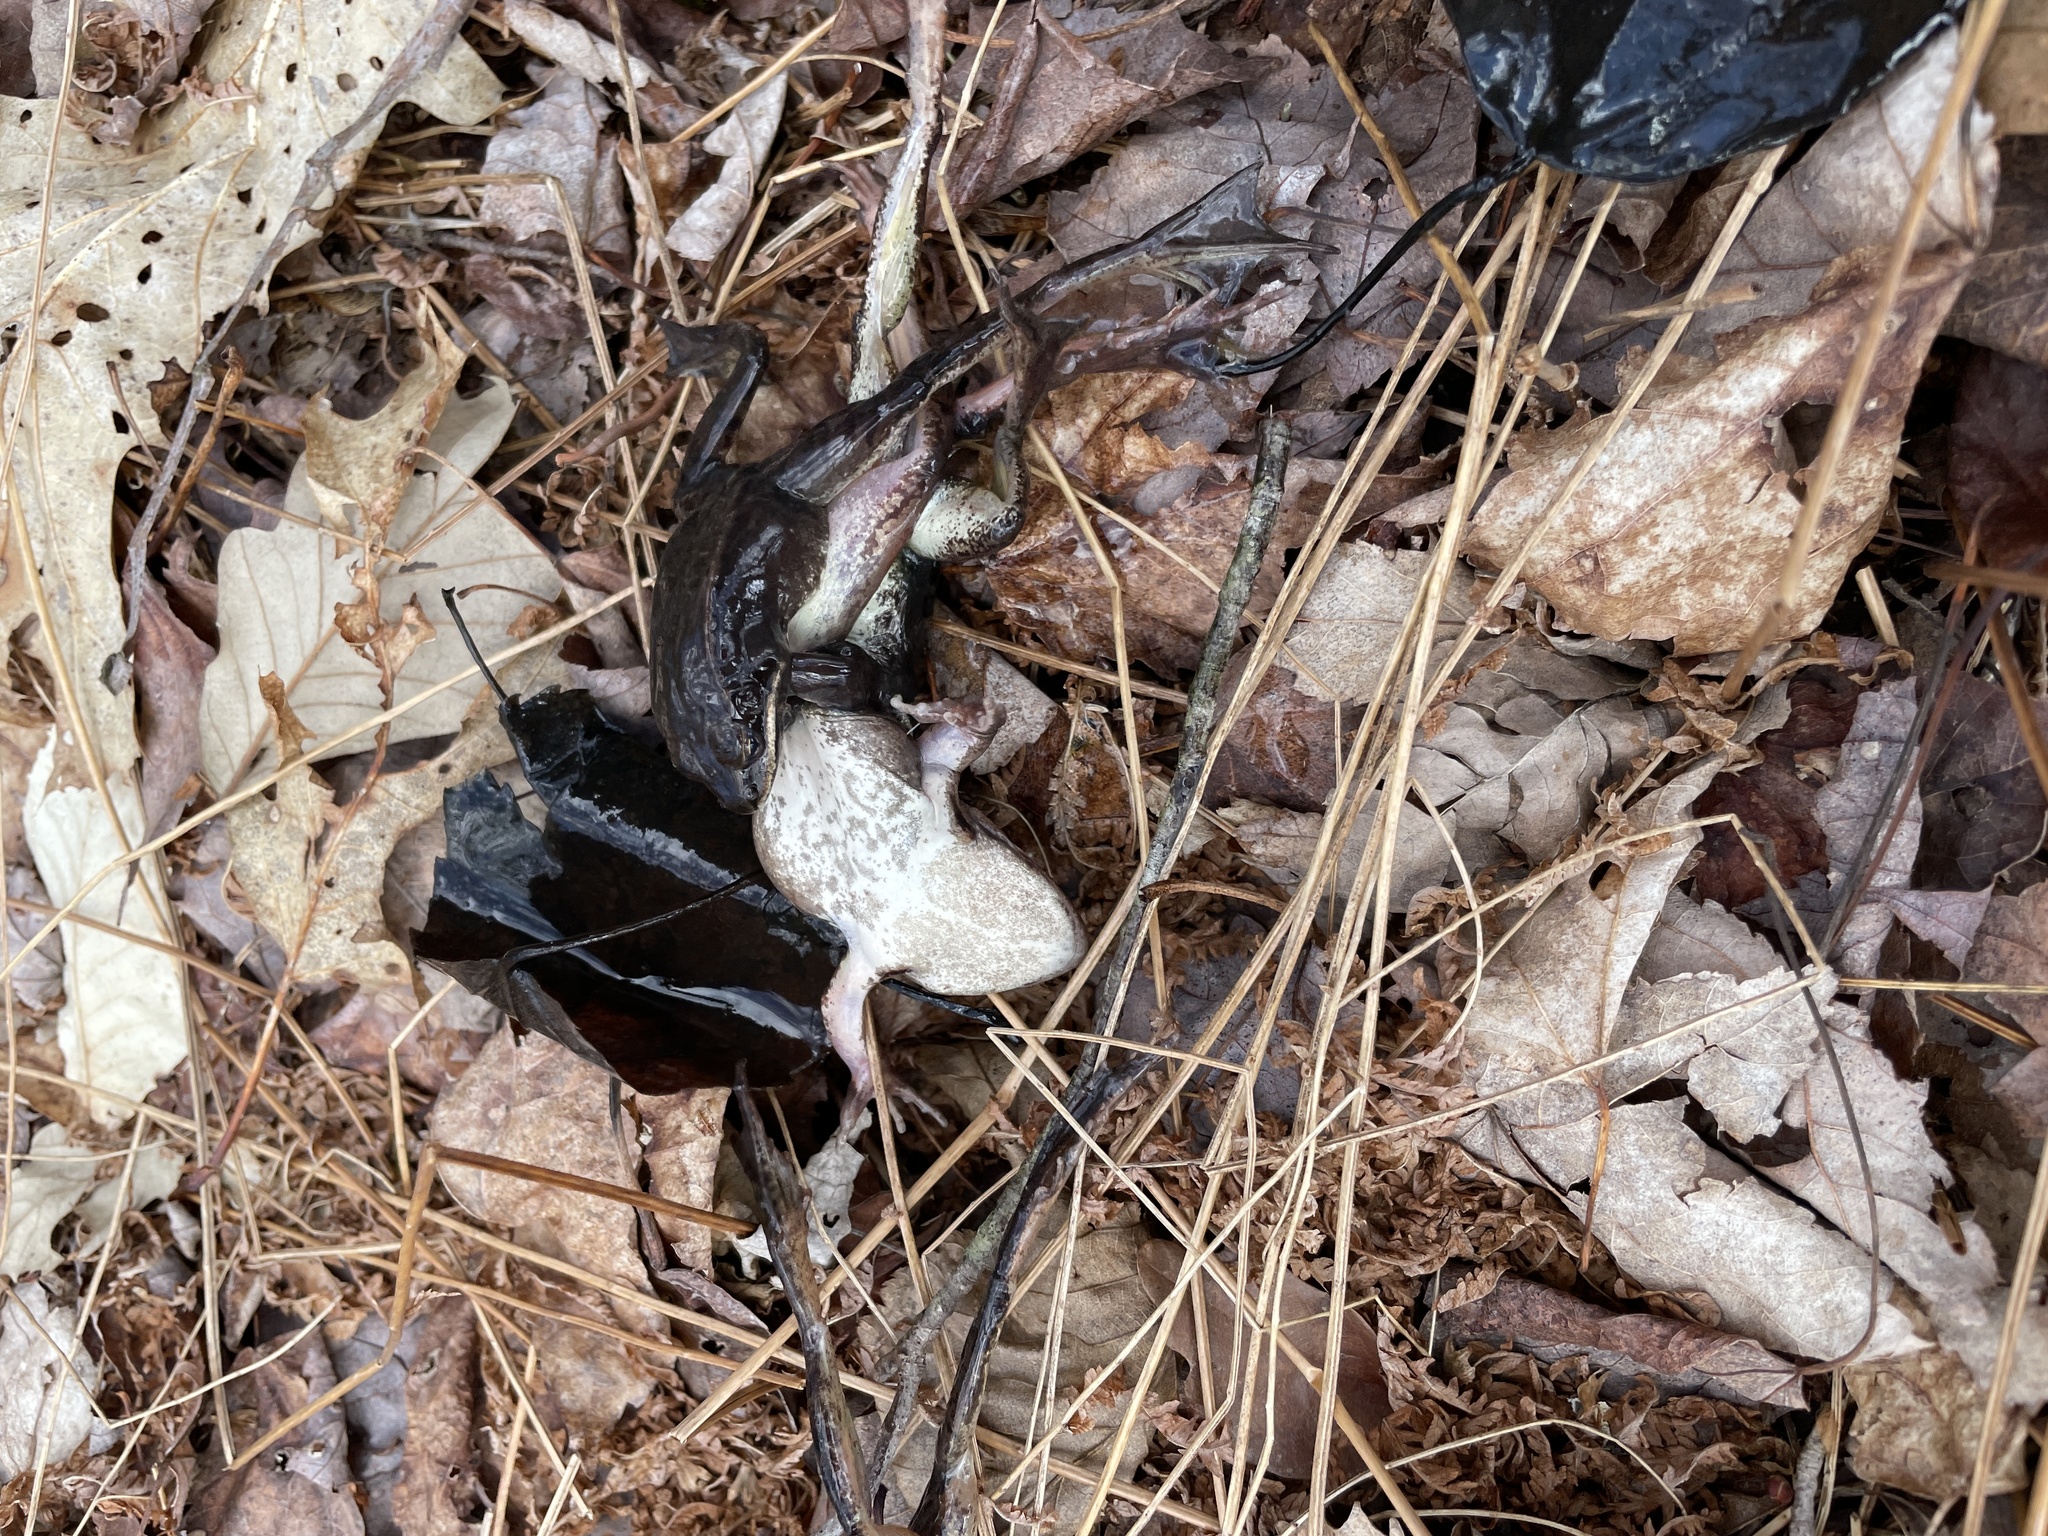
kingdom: Animalia
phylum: Chordata
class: Amphibia
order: Anura
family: Ranidae
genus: Lithobates
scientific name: Lithobates sylvaticus
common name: Wood frog
